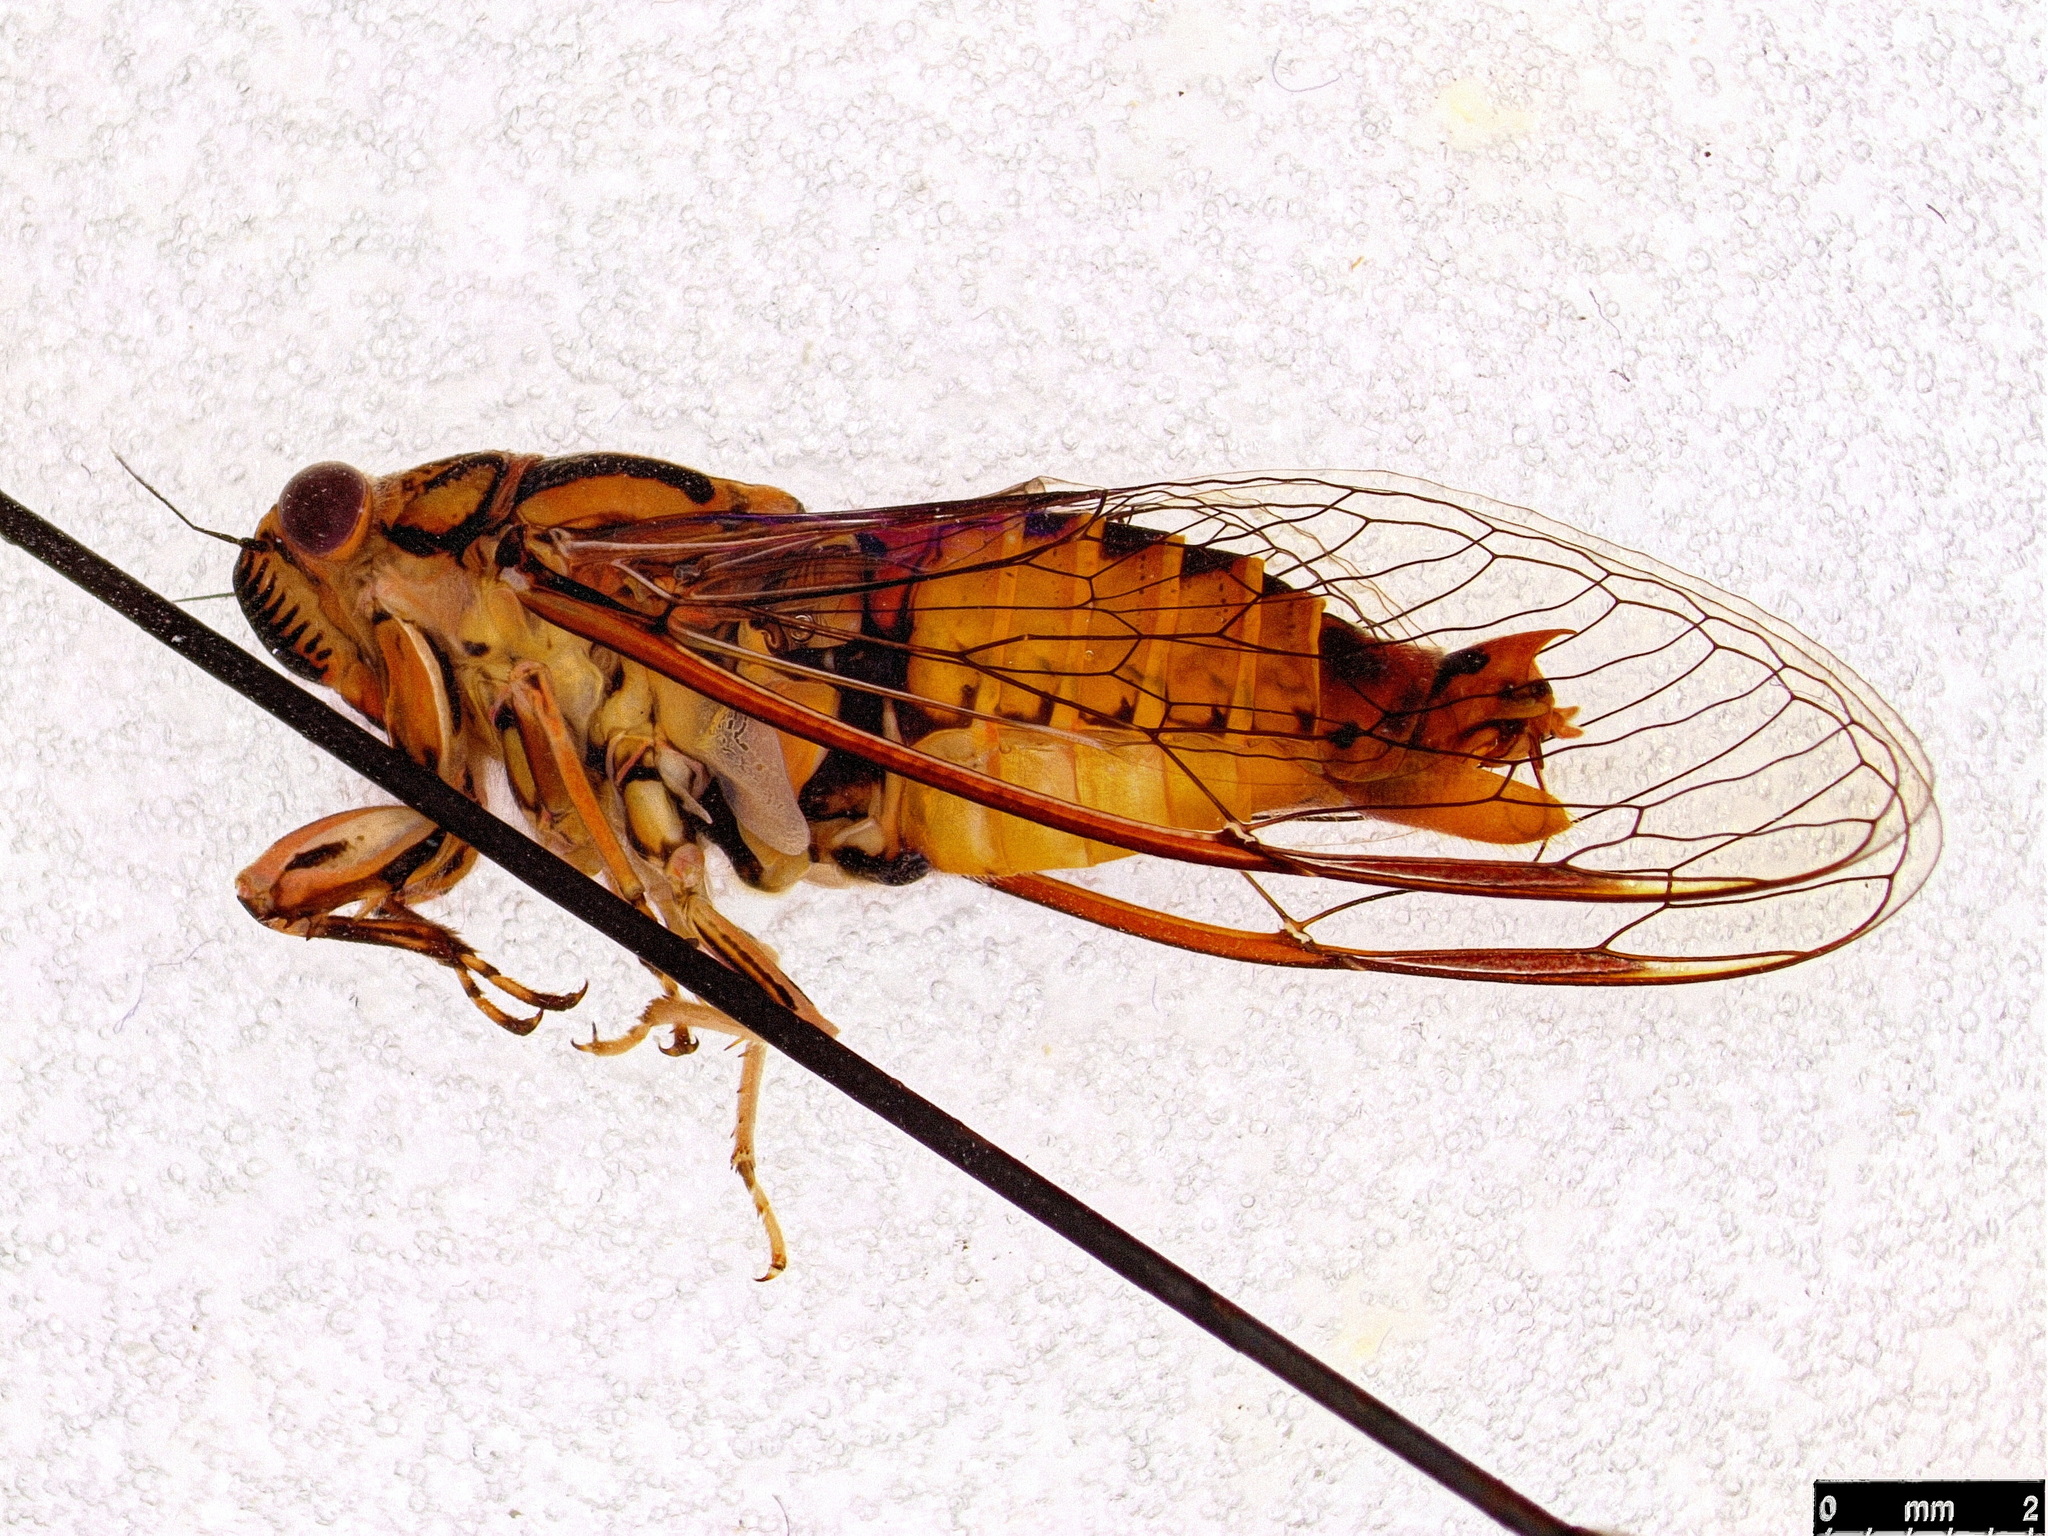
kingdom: Animalia
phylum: Arthropoda
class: Insecta
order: Hemiptera
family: Cicadidae
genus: Yoyetta
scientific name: Yoyetta celis
